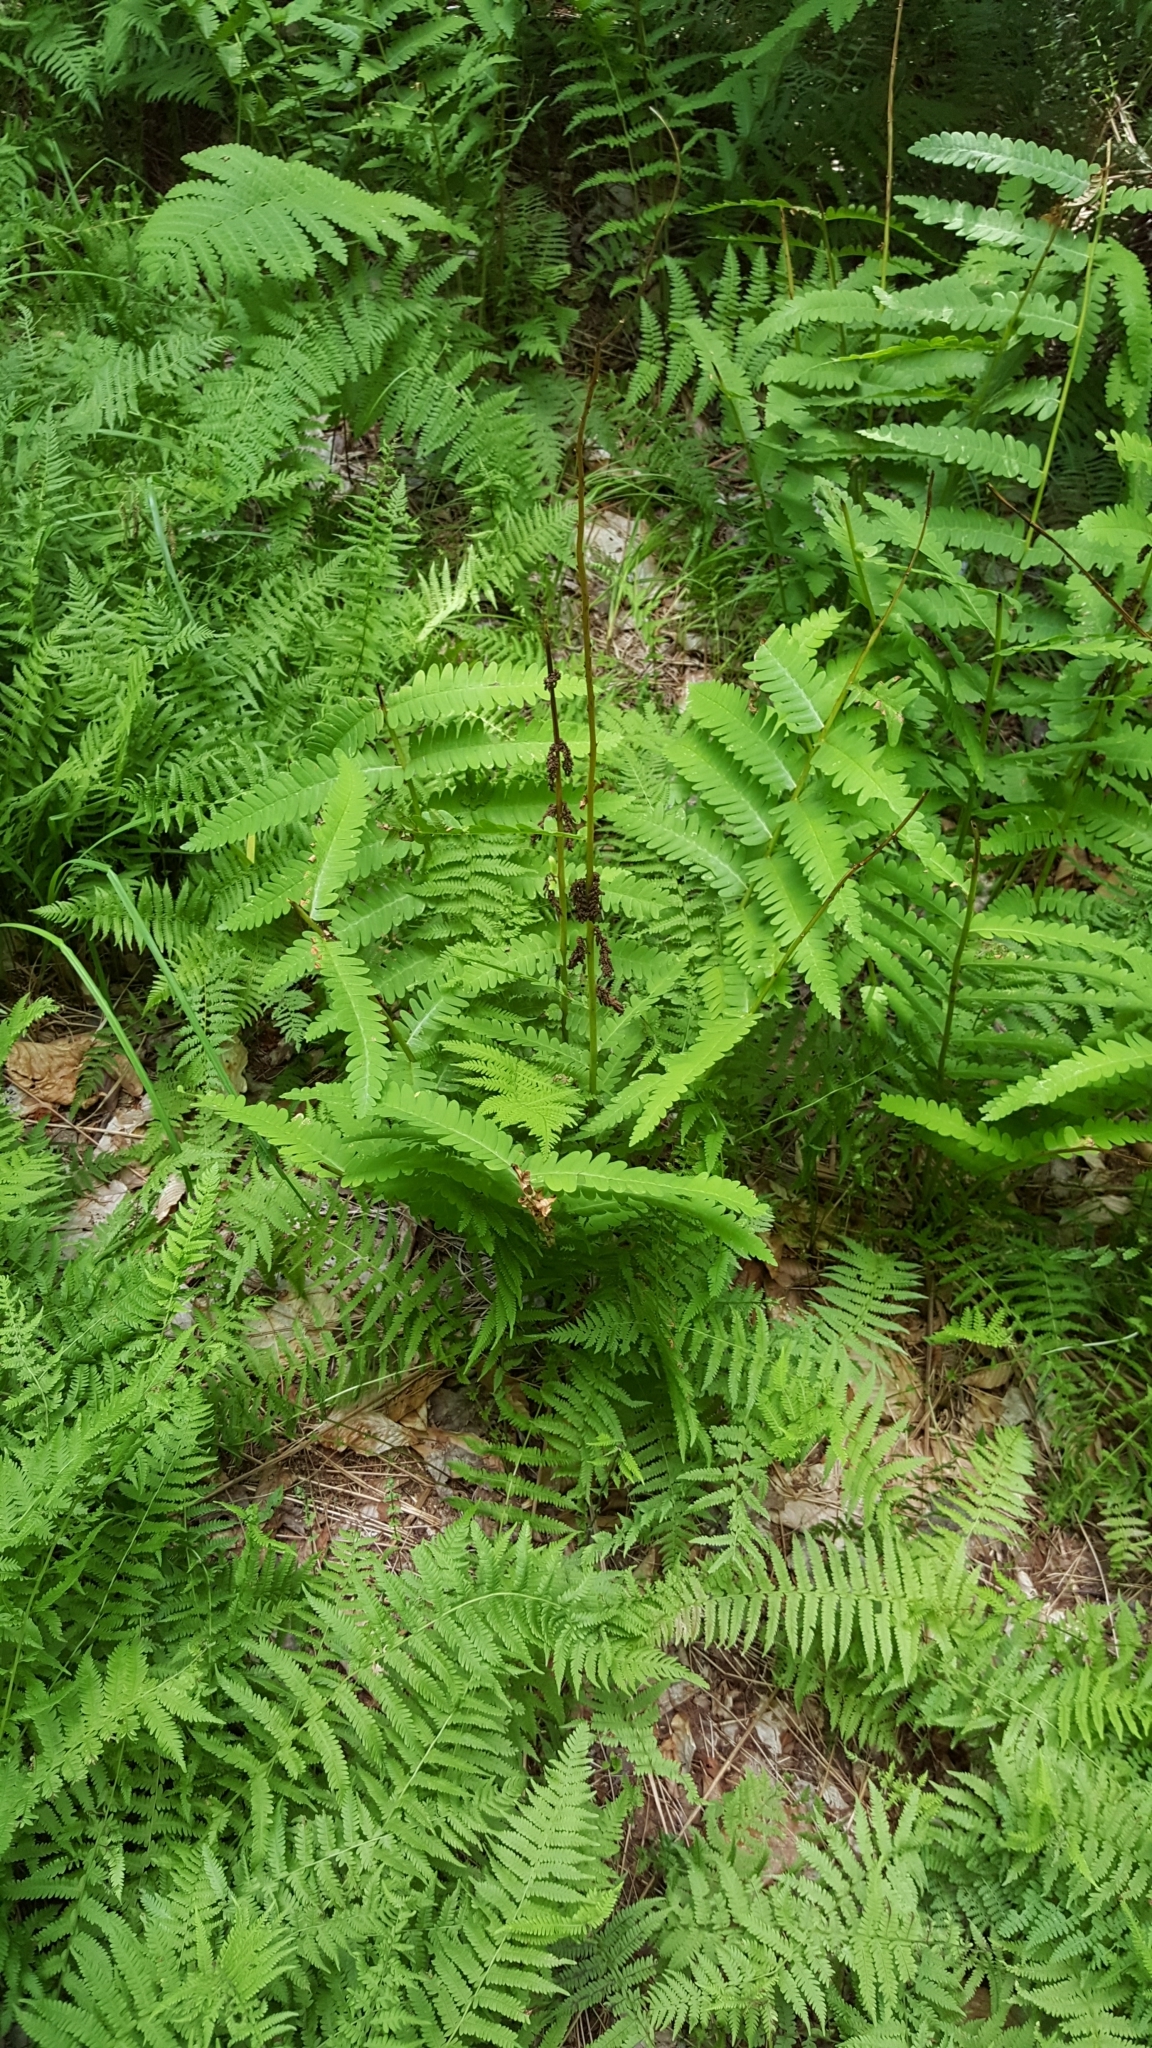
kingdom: Plantae
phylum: Tracheophyta
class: Polypodiopsida
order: Osmundales
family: Osmundaceae
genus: Claytosmunda
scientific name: Claytosmunda claytoniana
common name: Clayton's fern
